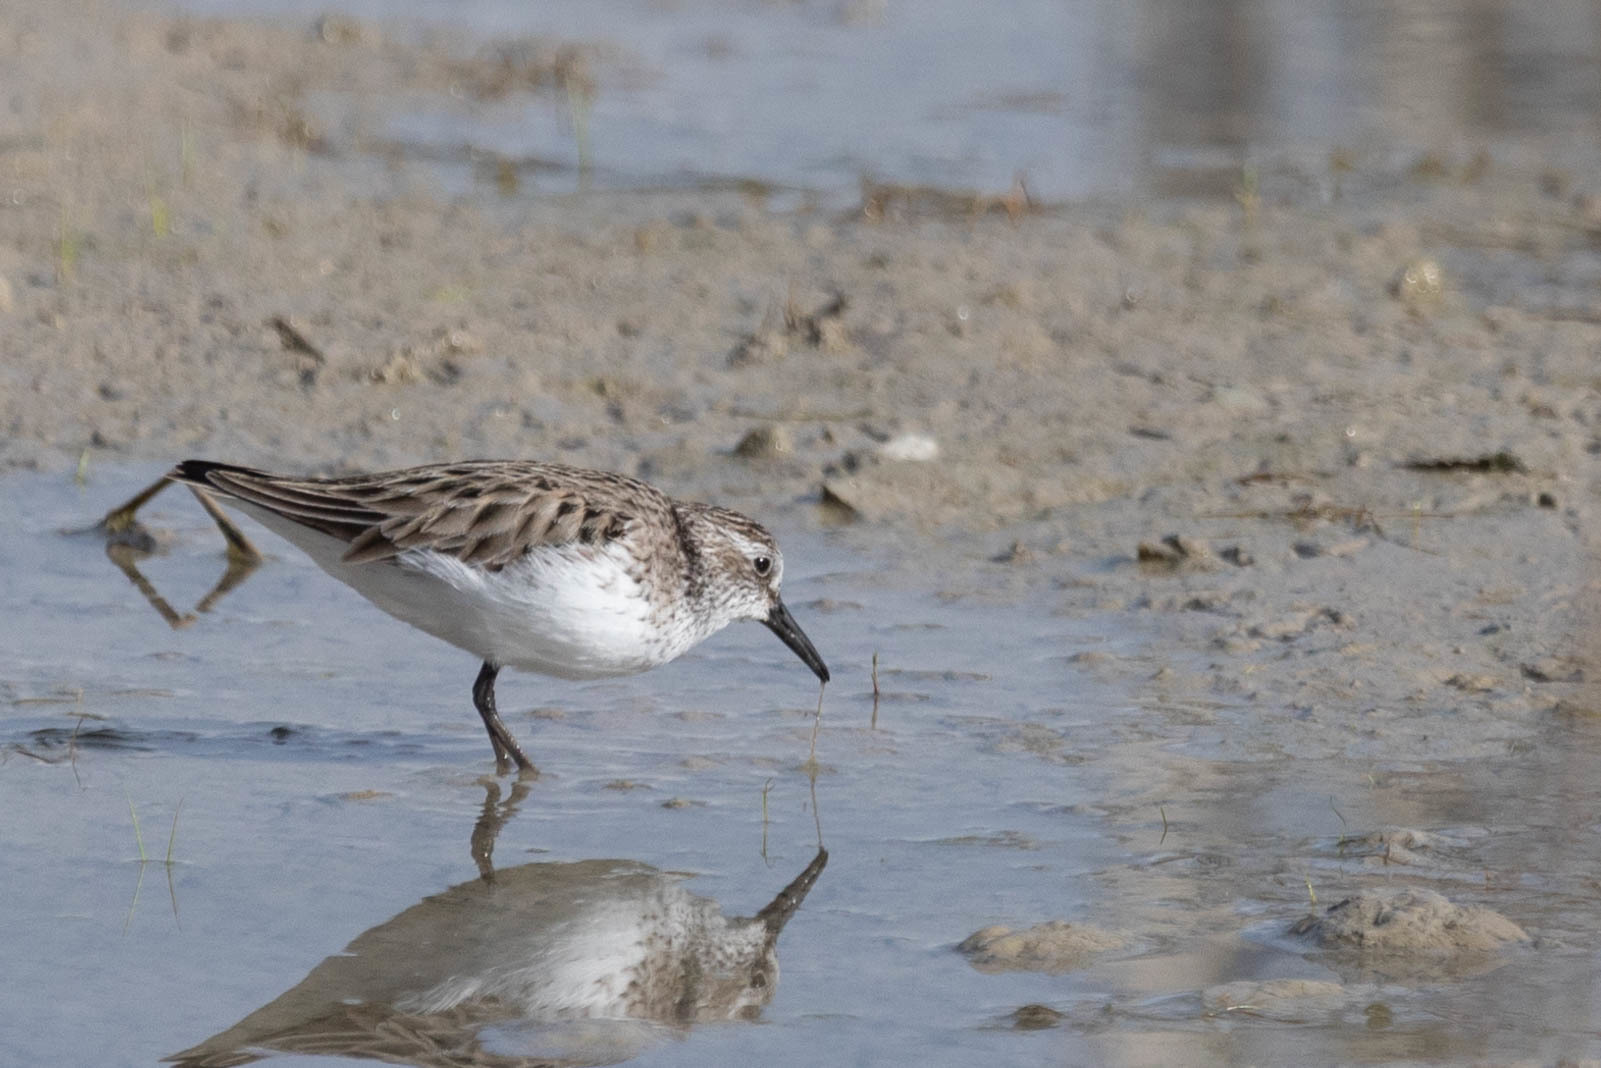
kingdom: Animalia
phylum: Chordata
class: Aves
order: Charadriiformes
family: Scolopacidae
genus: Calidris
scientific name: Calidris pusilla
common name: Semipalmated sandpiper
